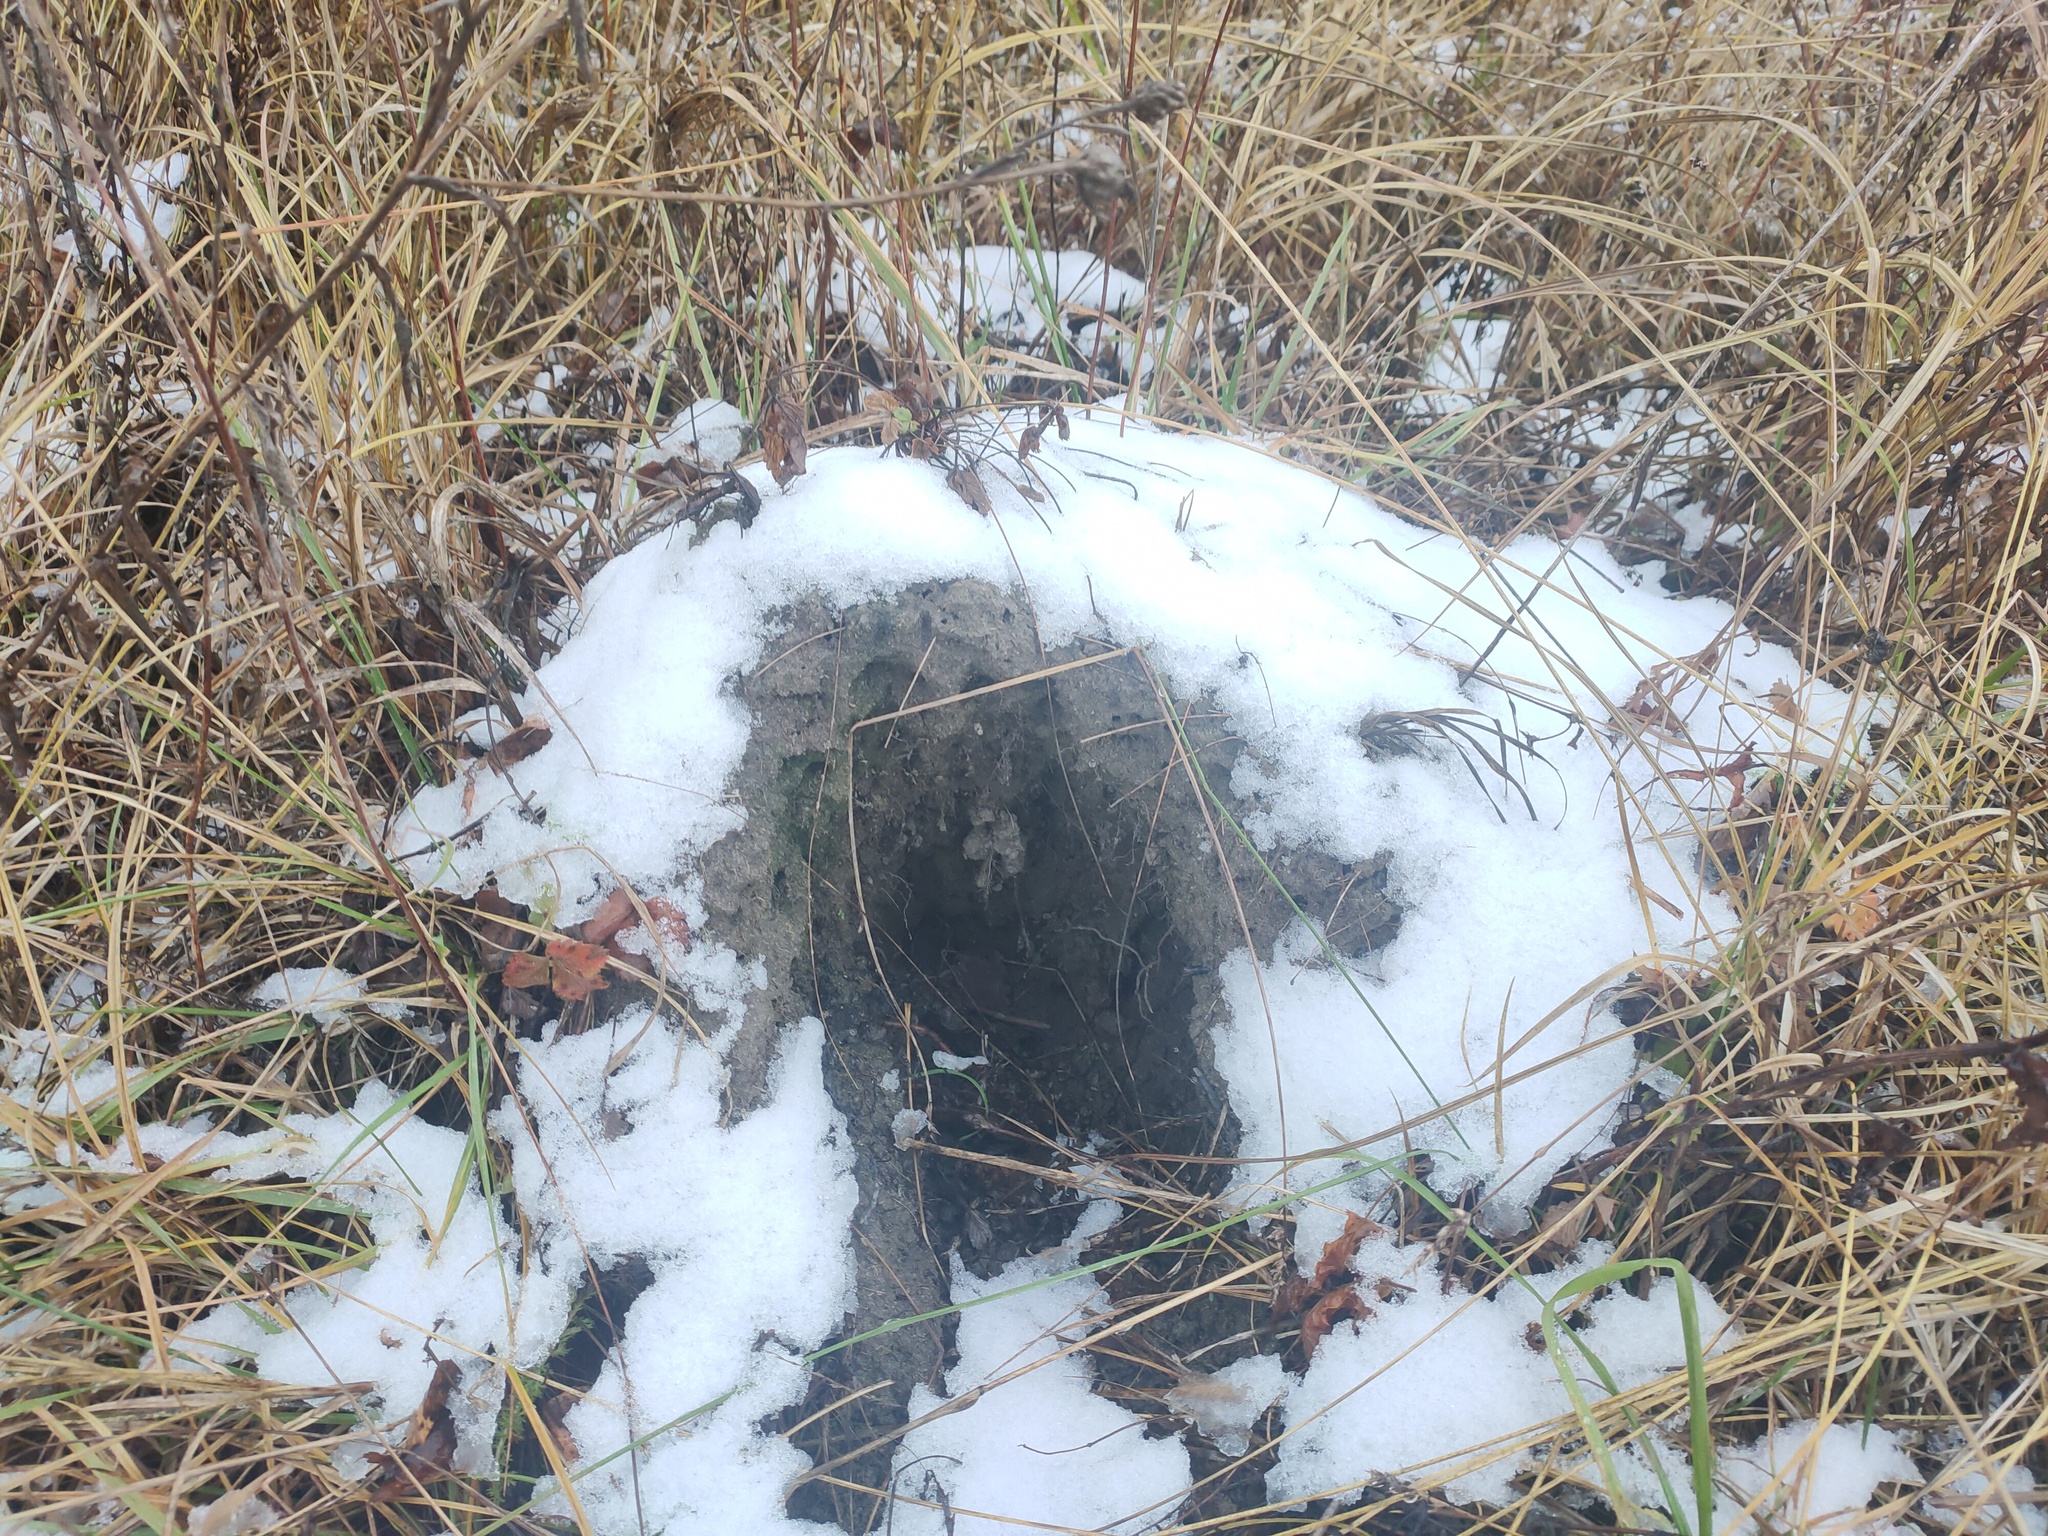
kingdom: Animalia
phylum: Chordata
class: Mammalia
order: Soricomorpha
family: Talpidae
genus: Talpa
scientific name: Talpa europaea
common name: European mole
